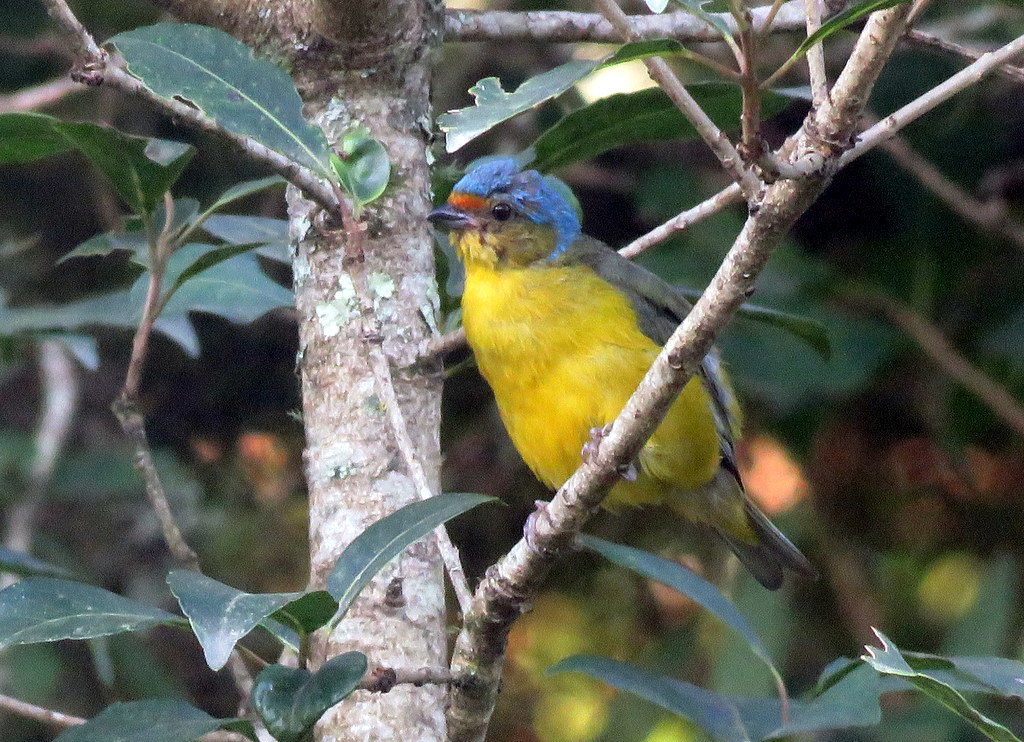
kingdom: Animalia
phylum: Chordata
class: Aves
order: Passeriformes
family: Fringillidae
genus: Euphonia
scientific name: Euphonia cyanocephala
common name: Golden-rumped euphonia
